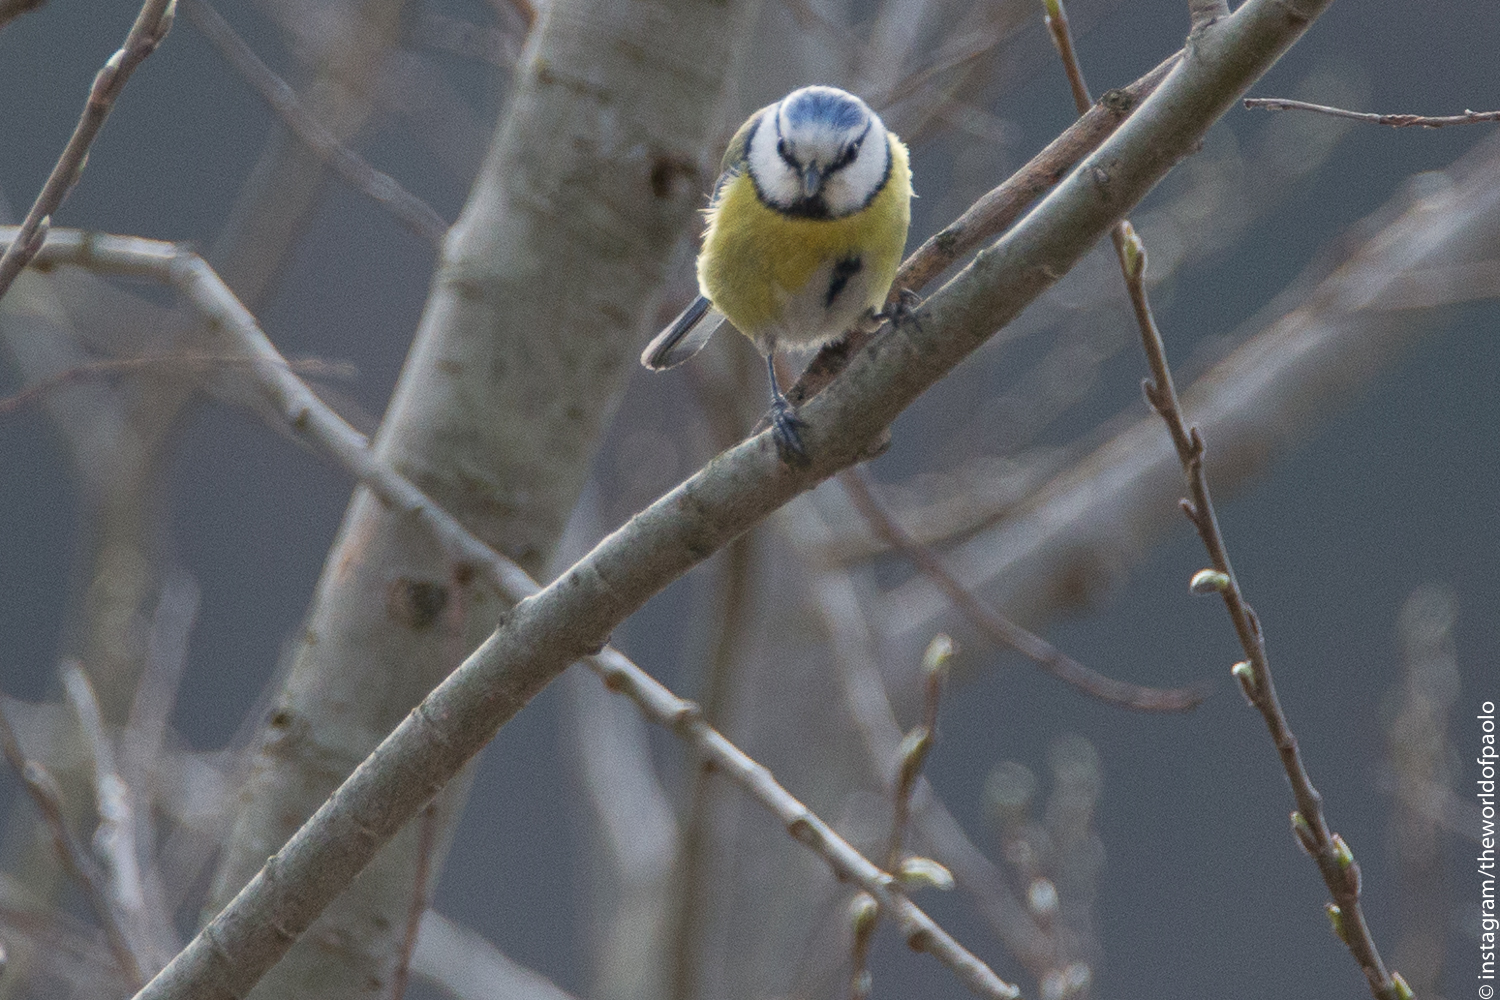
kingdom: Animalia
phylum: Chordata
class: Aves
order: Passeriformes
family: Paridae
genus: Cyanistes
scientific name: Cyanistes caeruleus
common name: Eurasian blue tit
